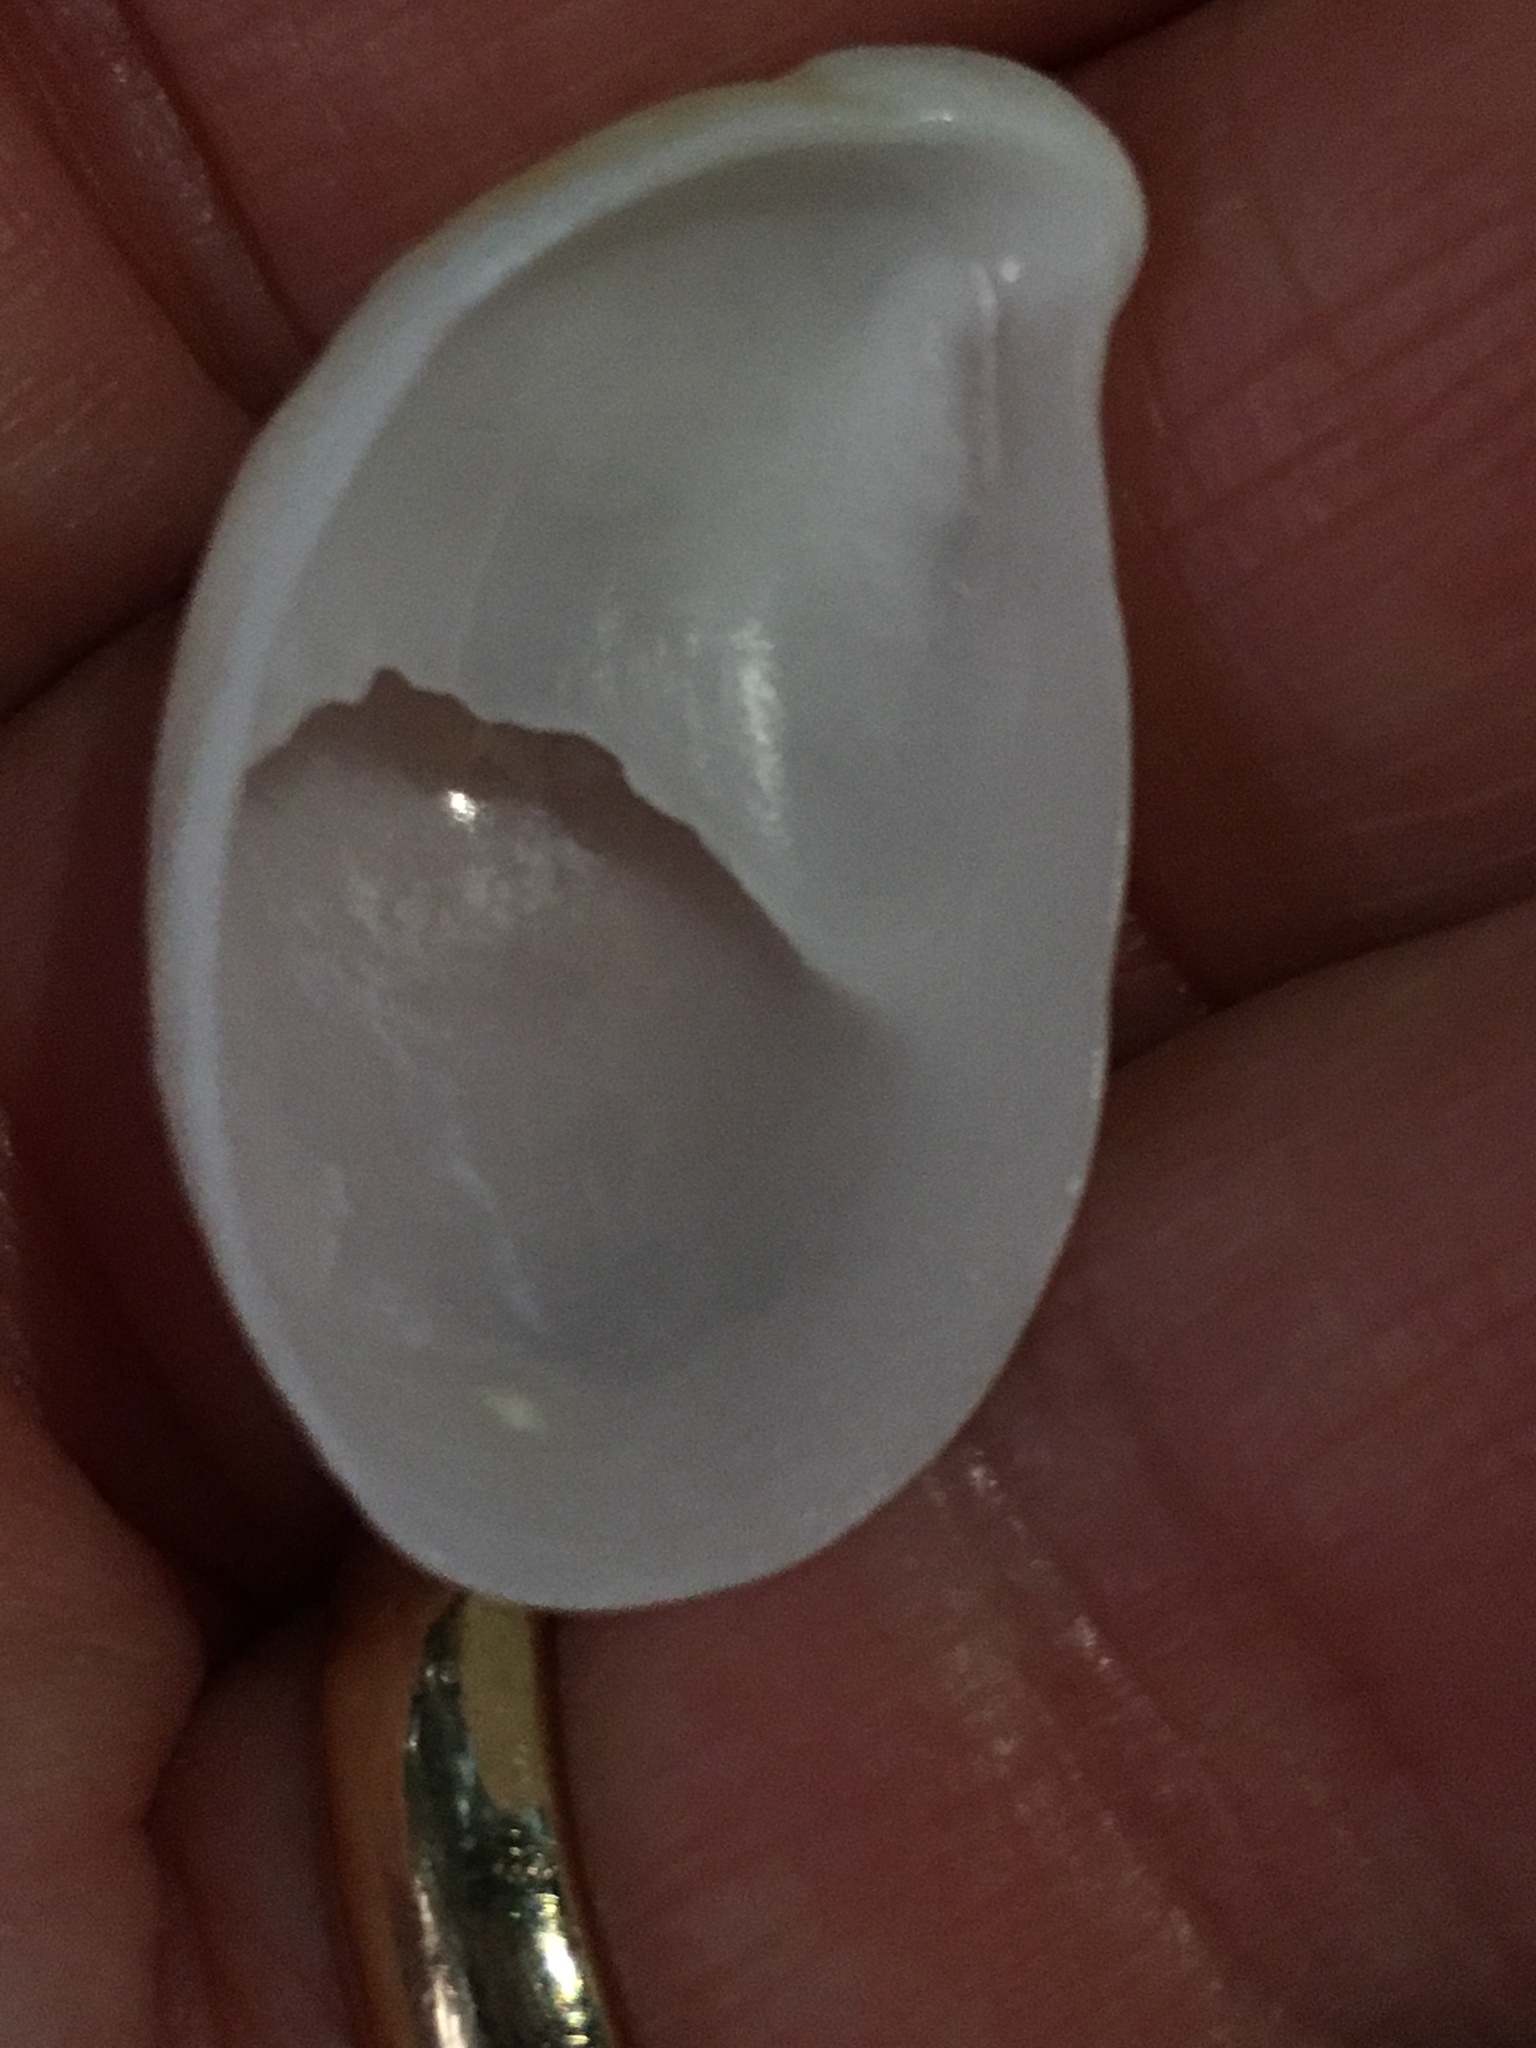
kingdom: Animalia
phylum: Mollusca
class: Gastropoda
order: Littorinimorpha
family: Calyptraeidae
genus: Crepidula
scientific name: Crepidula fornicata
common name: Slipper limpet
